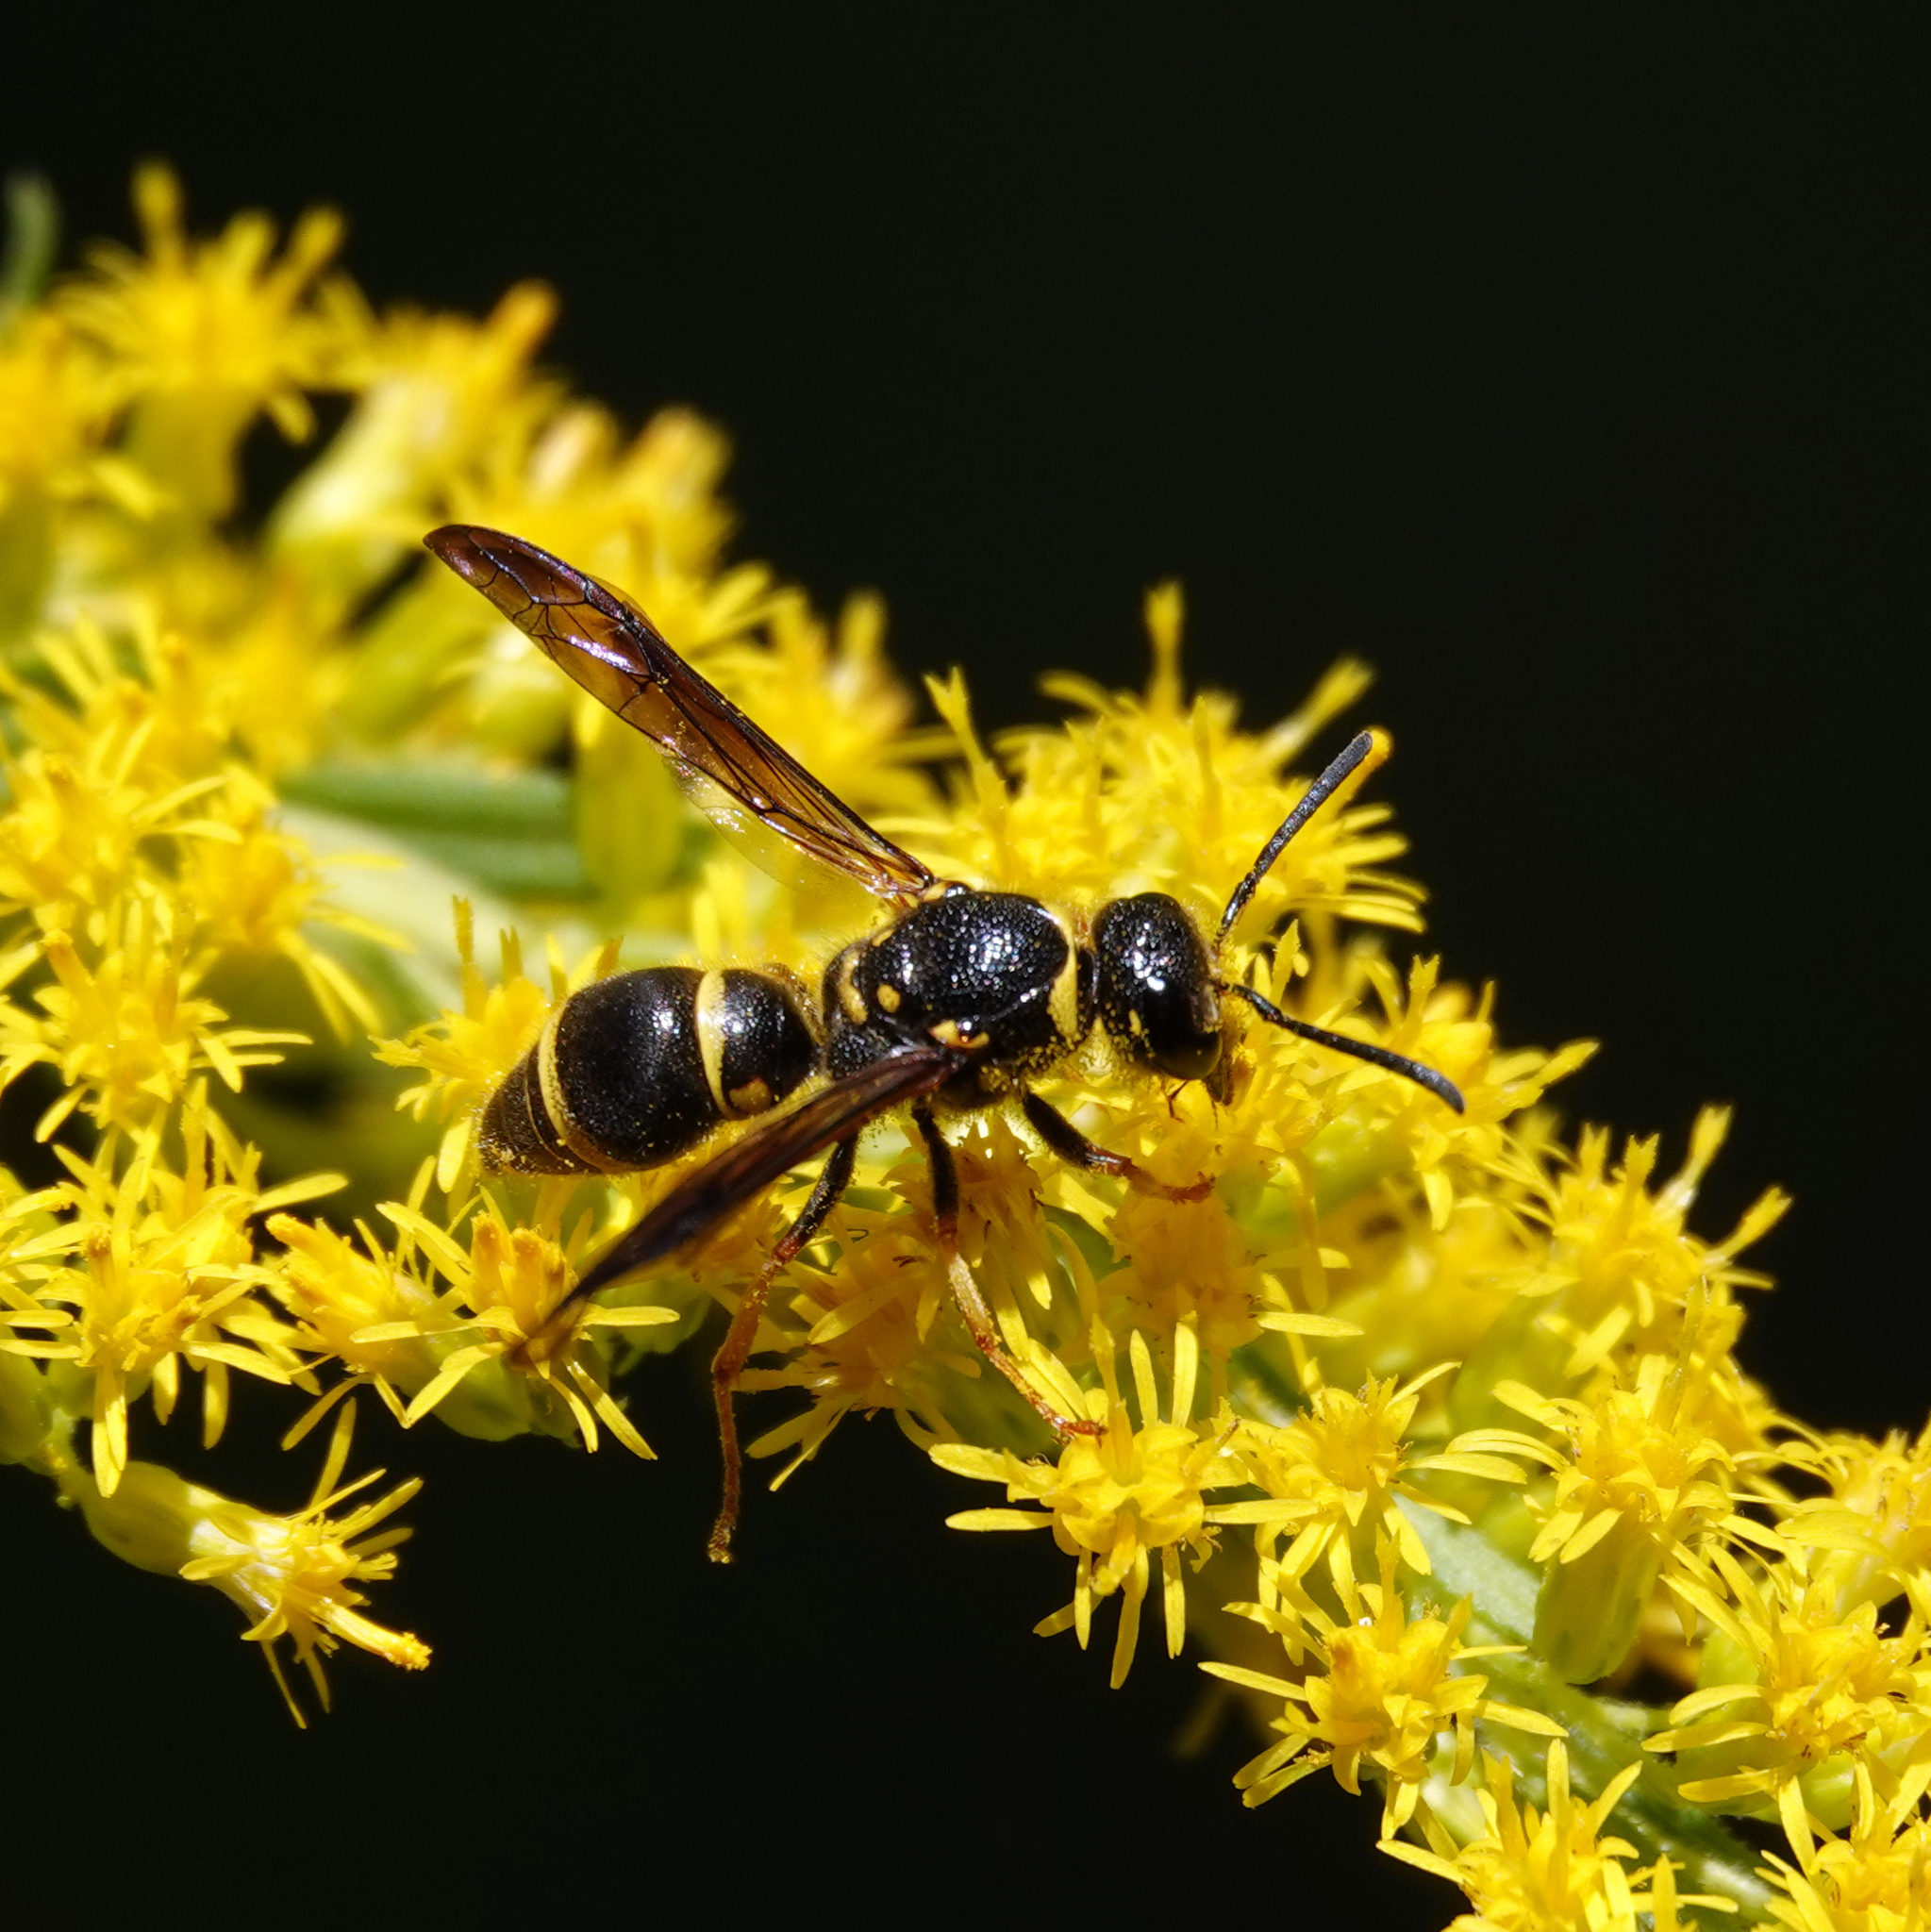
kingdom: Animalia
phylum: Arthropoda
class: Insecta
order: Hymenoptera
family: Vespidae
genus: Ancistrocerus
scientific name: Ancistrocerus campestris
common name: Smiling mason wasp
